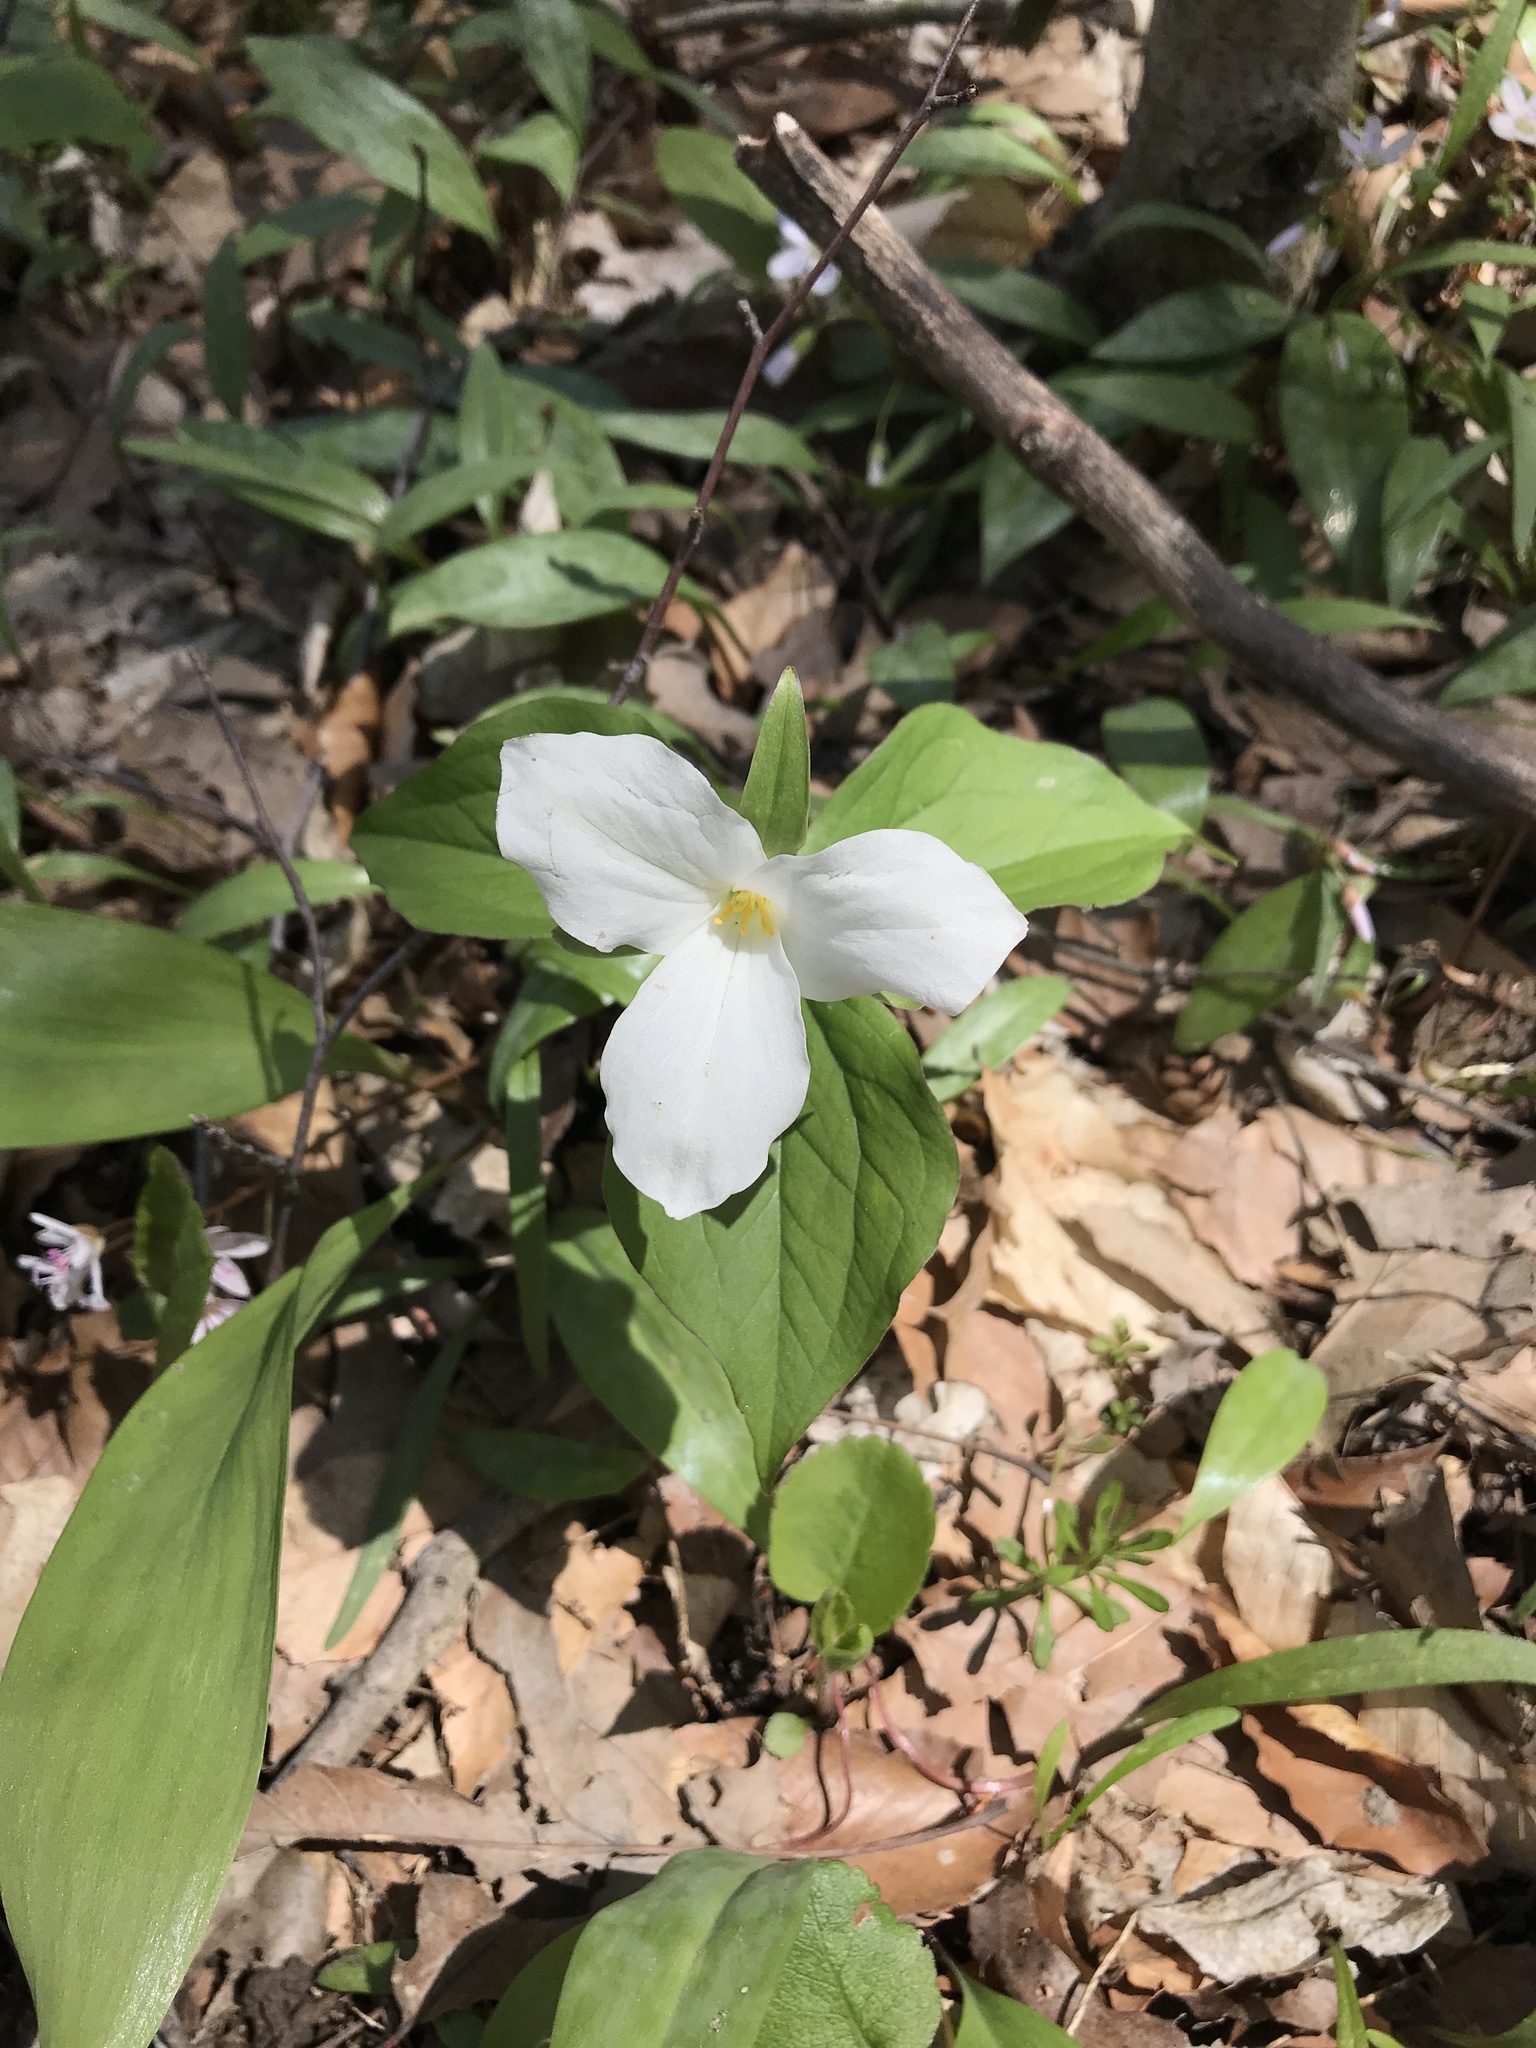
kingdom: Plantae
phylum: Tracheophyta
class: Liliopsida
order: Liliales
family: Melanthiaceae
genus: Trillium
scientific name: Trillium grandiflorum
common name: Great white trillium
